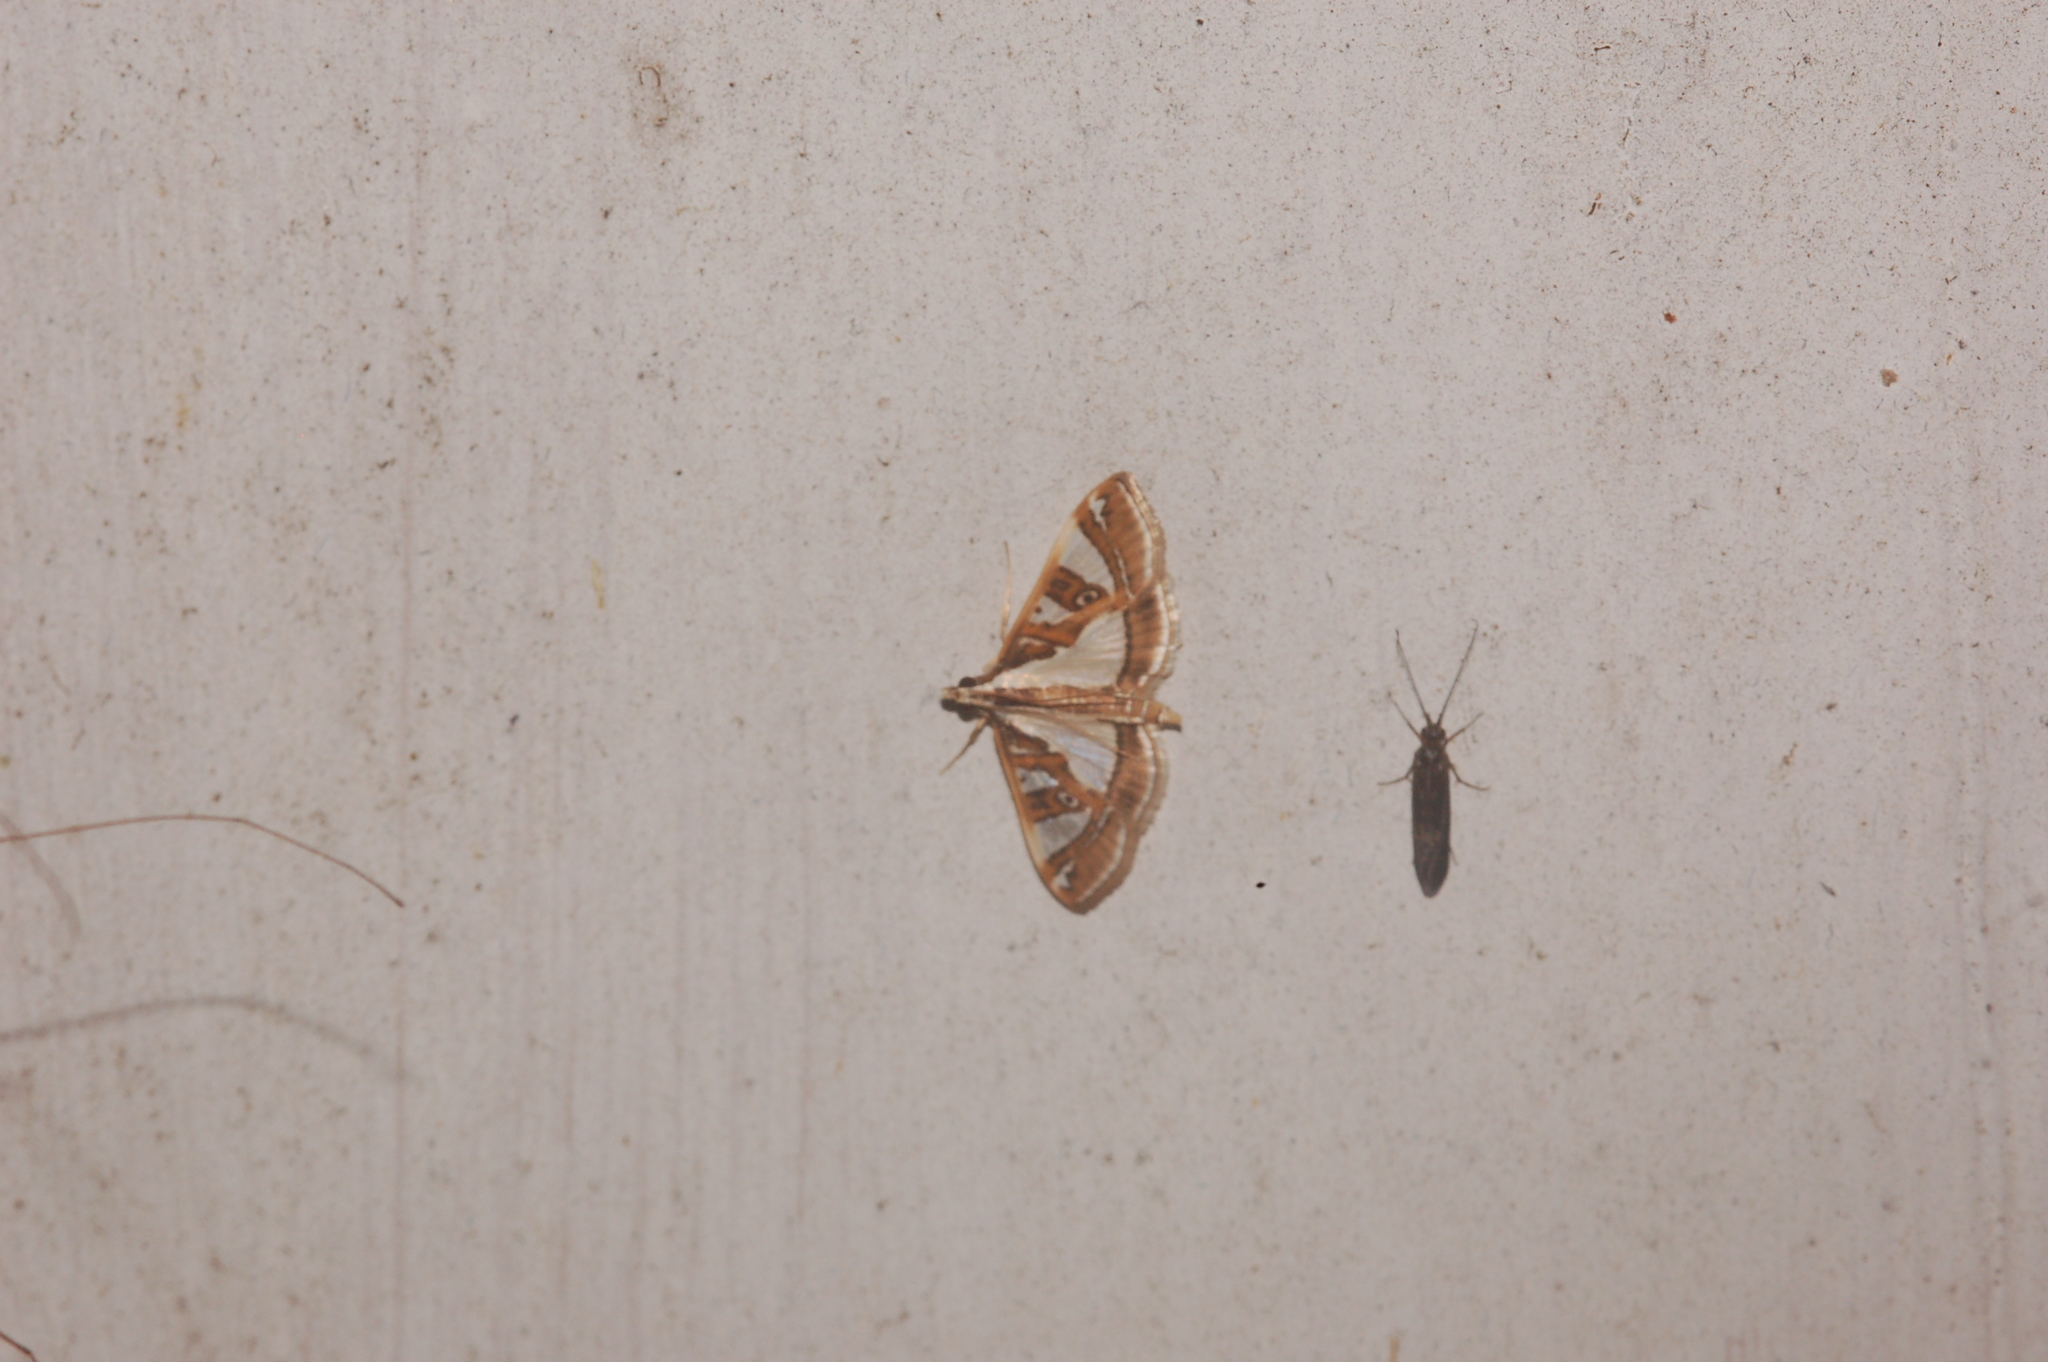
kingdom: Animalia
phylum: Arthropoda
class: Insecta
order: Lepidoptera
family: Crambidae
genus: Glyphodes
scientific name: Glyphodes pyloalis
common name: Lesser mulberry snout moth
